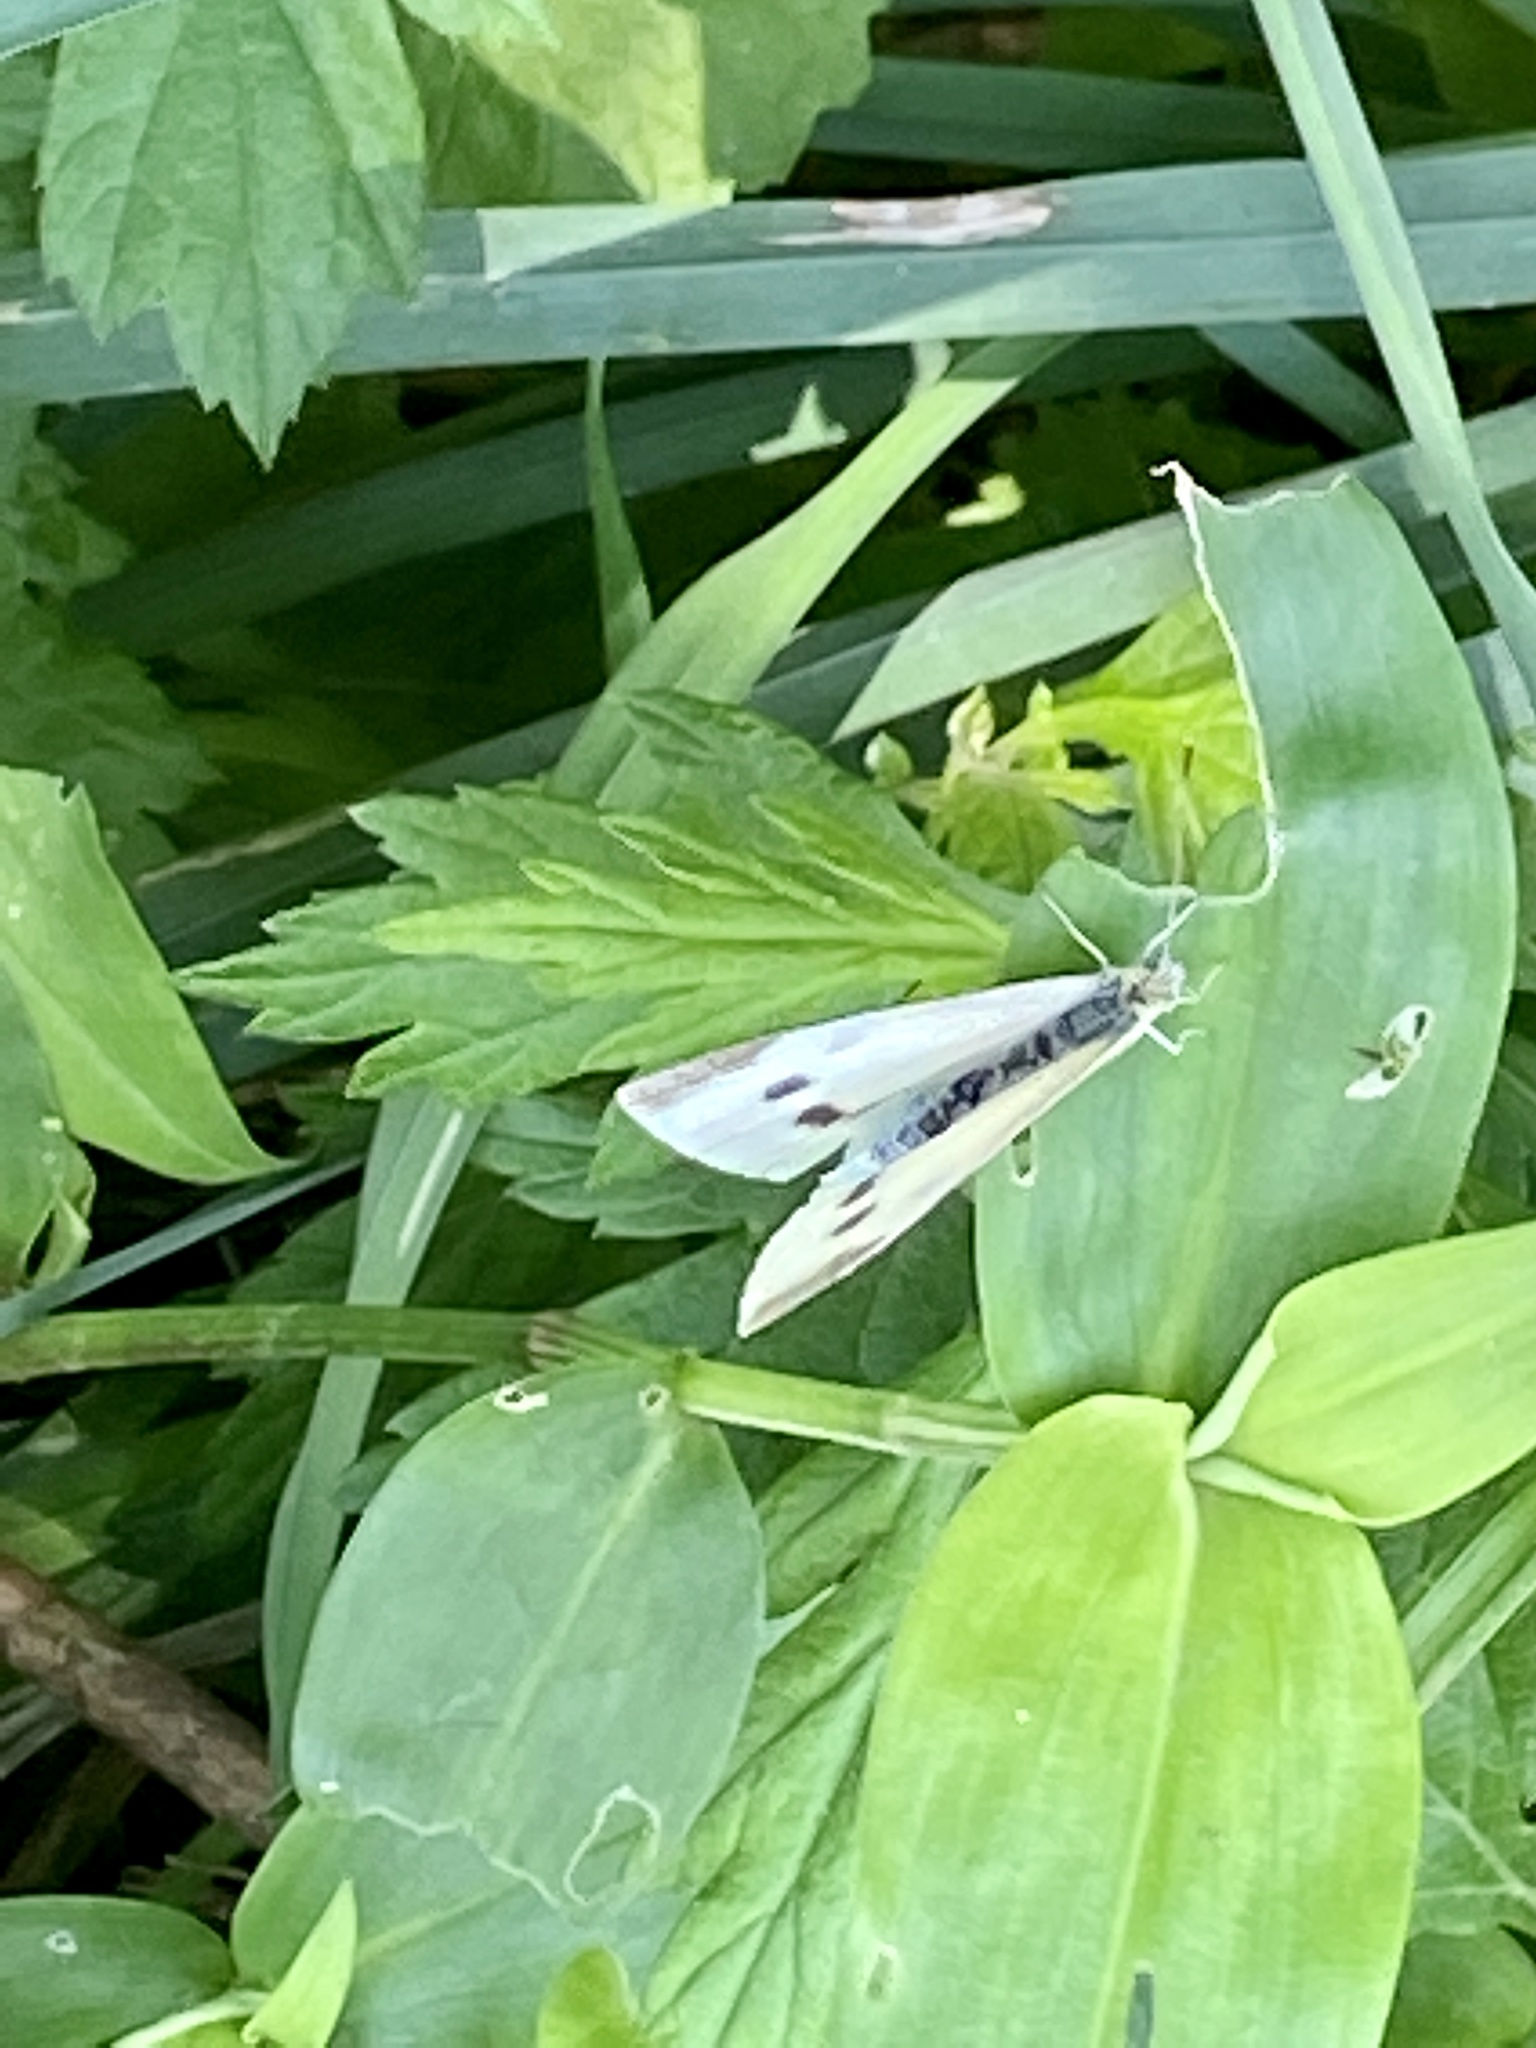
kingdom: Animalia
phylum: Arthropoda
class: Insecta
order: Lepidoptera
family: Pieridae
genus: Pieris
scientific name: Pieris rapae
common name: Small white
